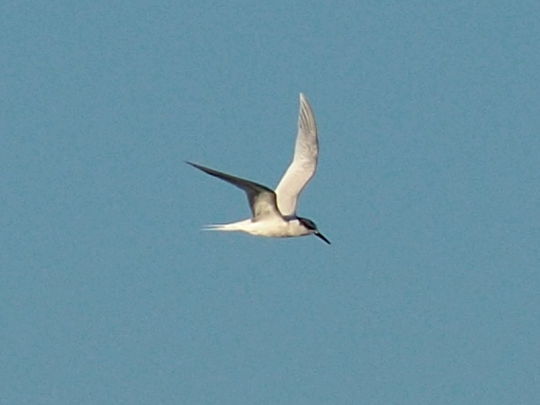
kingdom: Animalia
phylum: Chordata
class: Aves
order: Charadriiformes
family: Laridae
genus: Thalasseus
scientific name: Thalasseus sandvicensis
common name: Sandwich tern
